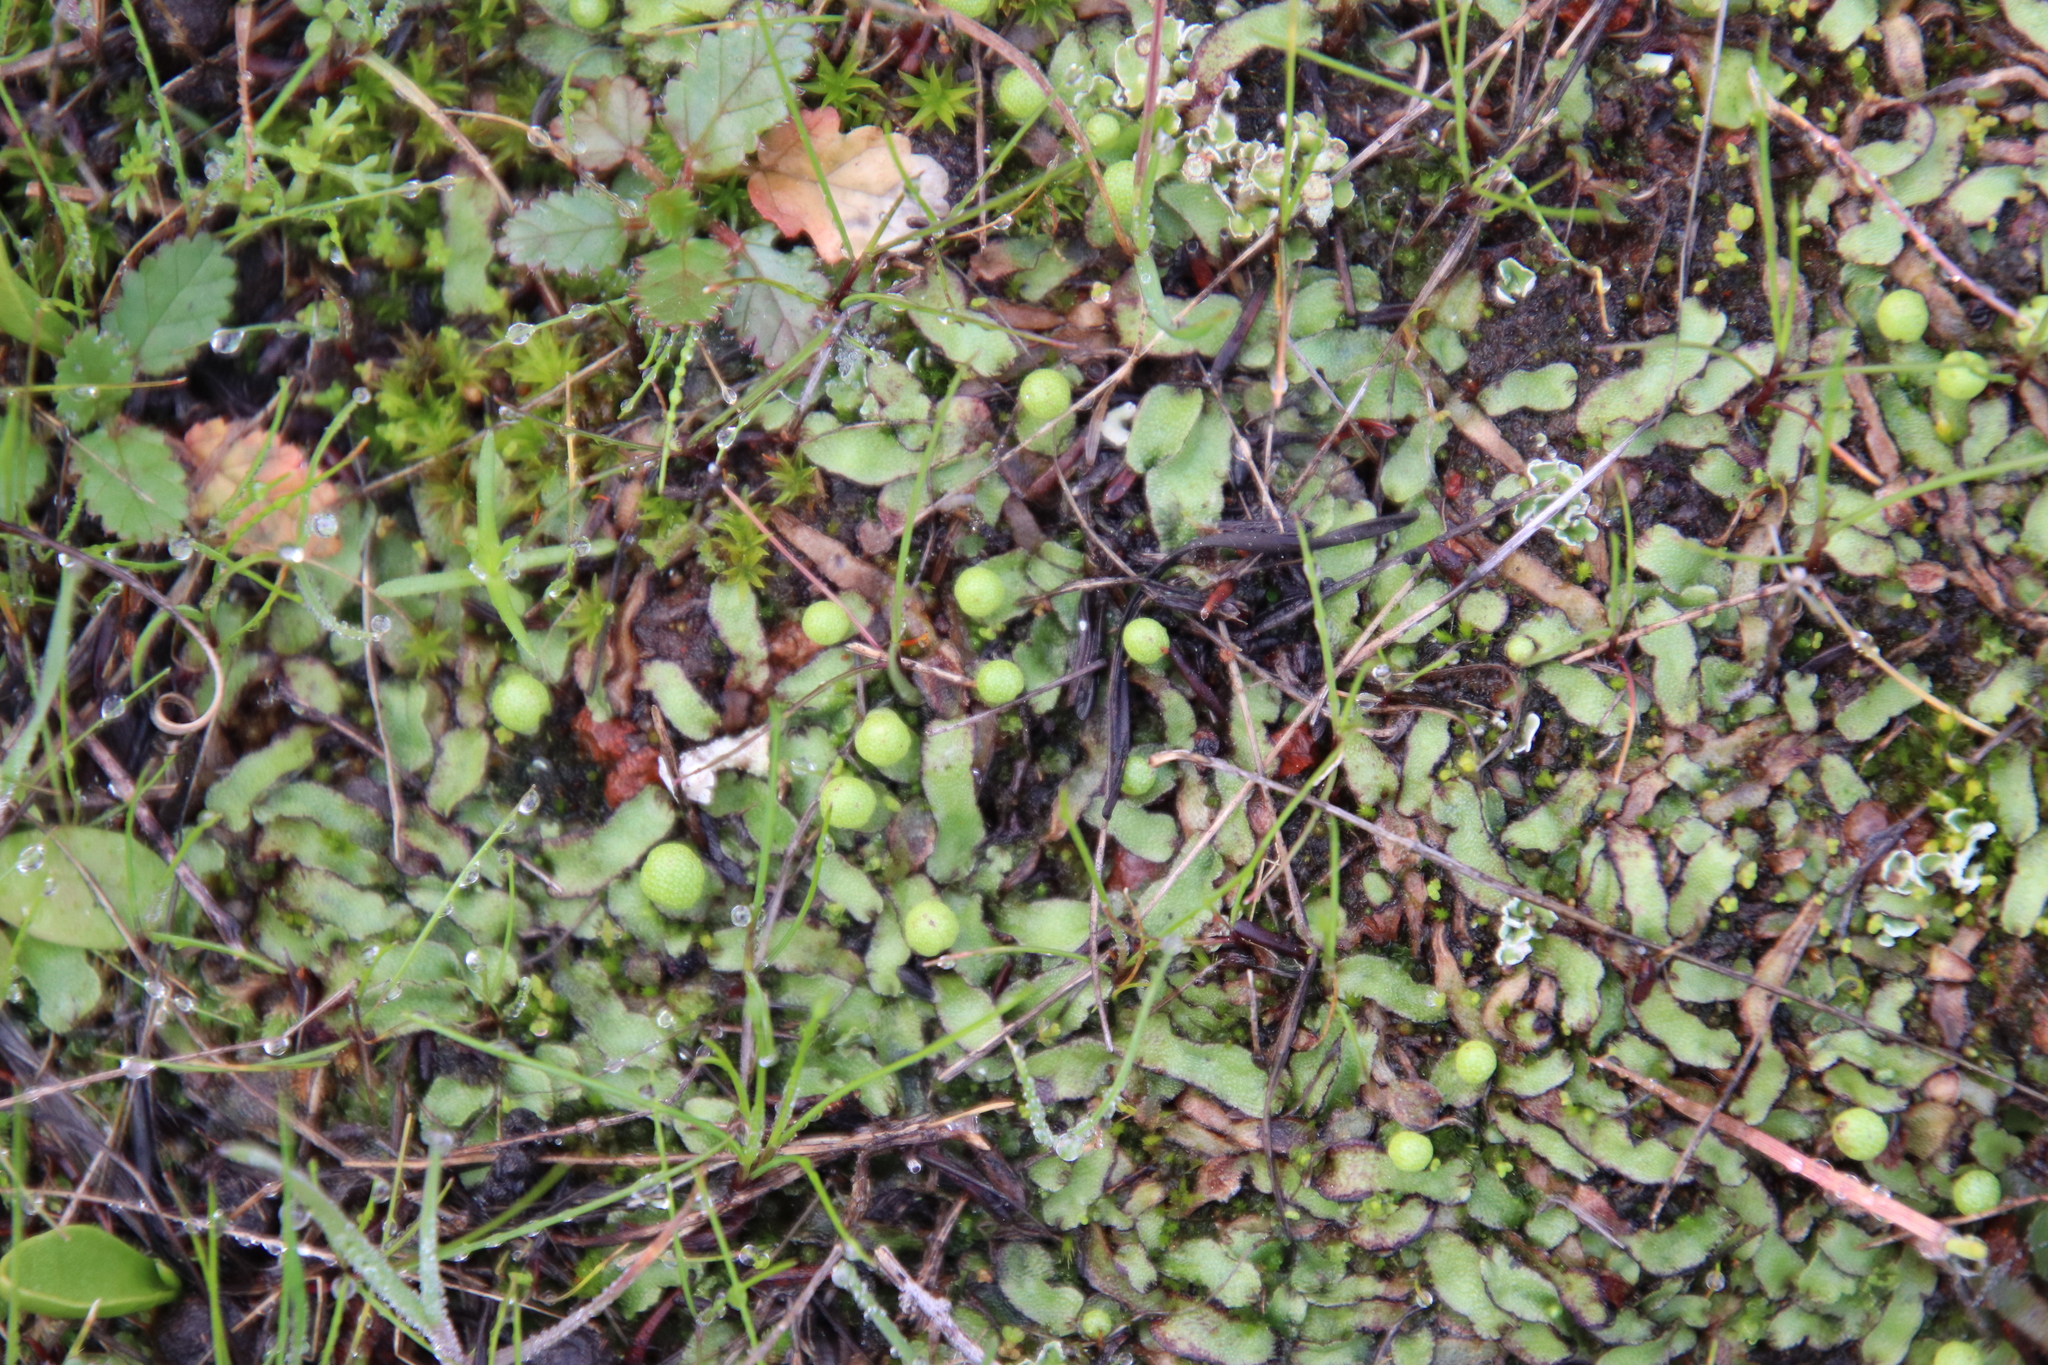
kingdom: Plantae
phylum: Marchantiophyta
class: Marchantiopsida
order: Marchantiales
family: Aytoniaceae
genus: Asterella
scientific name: Asterella palmeri
